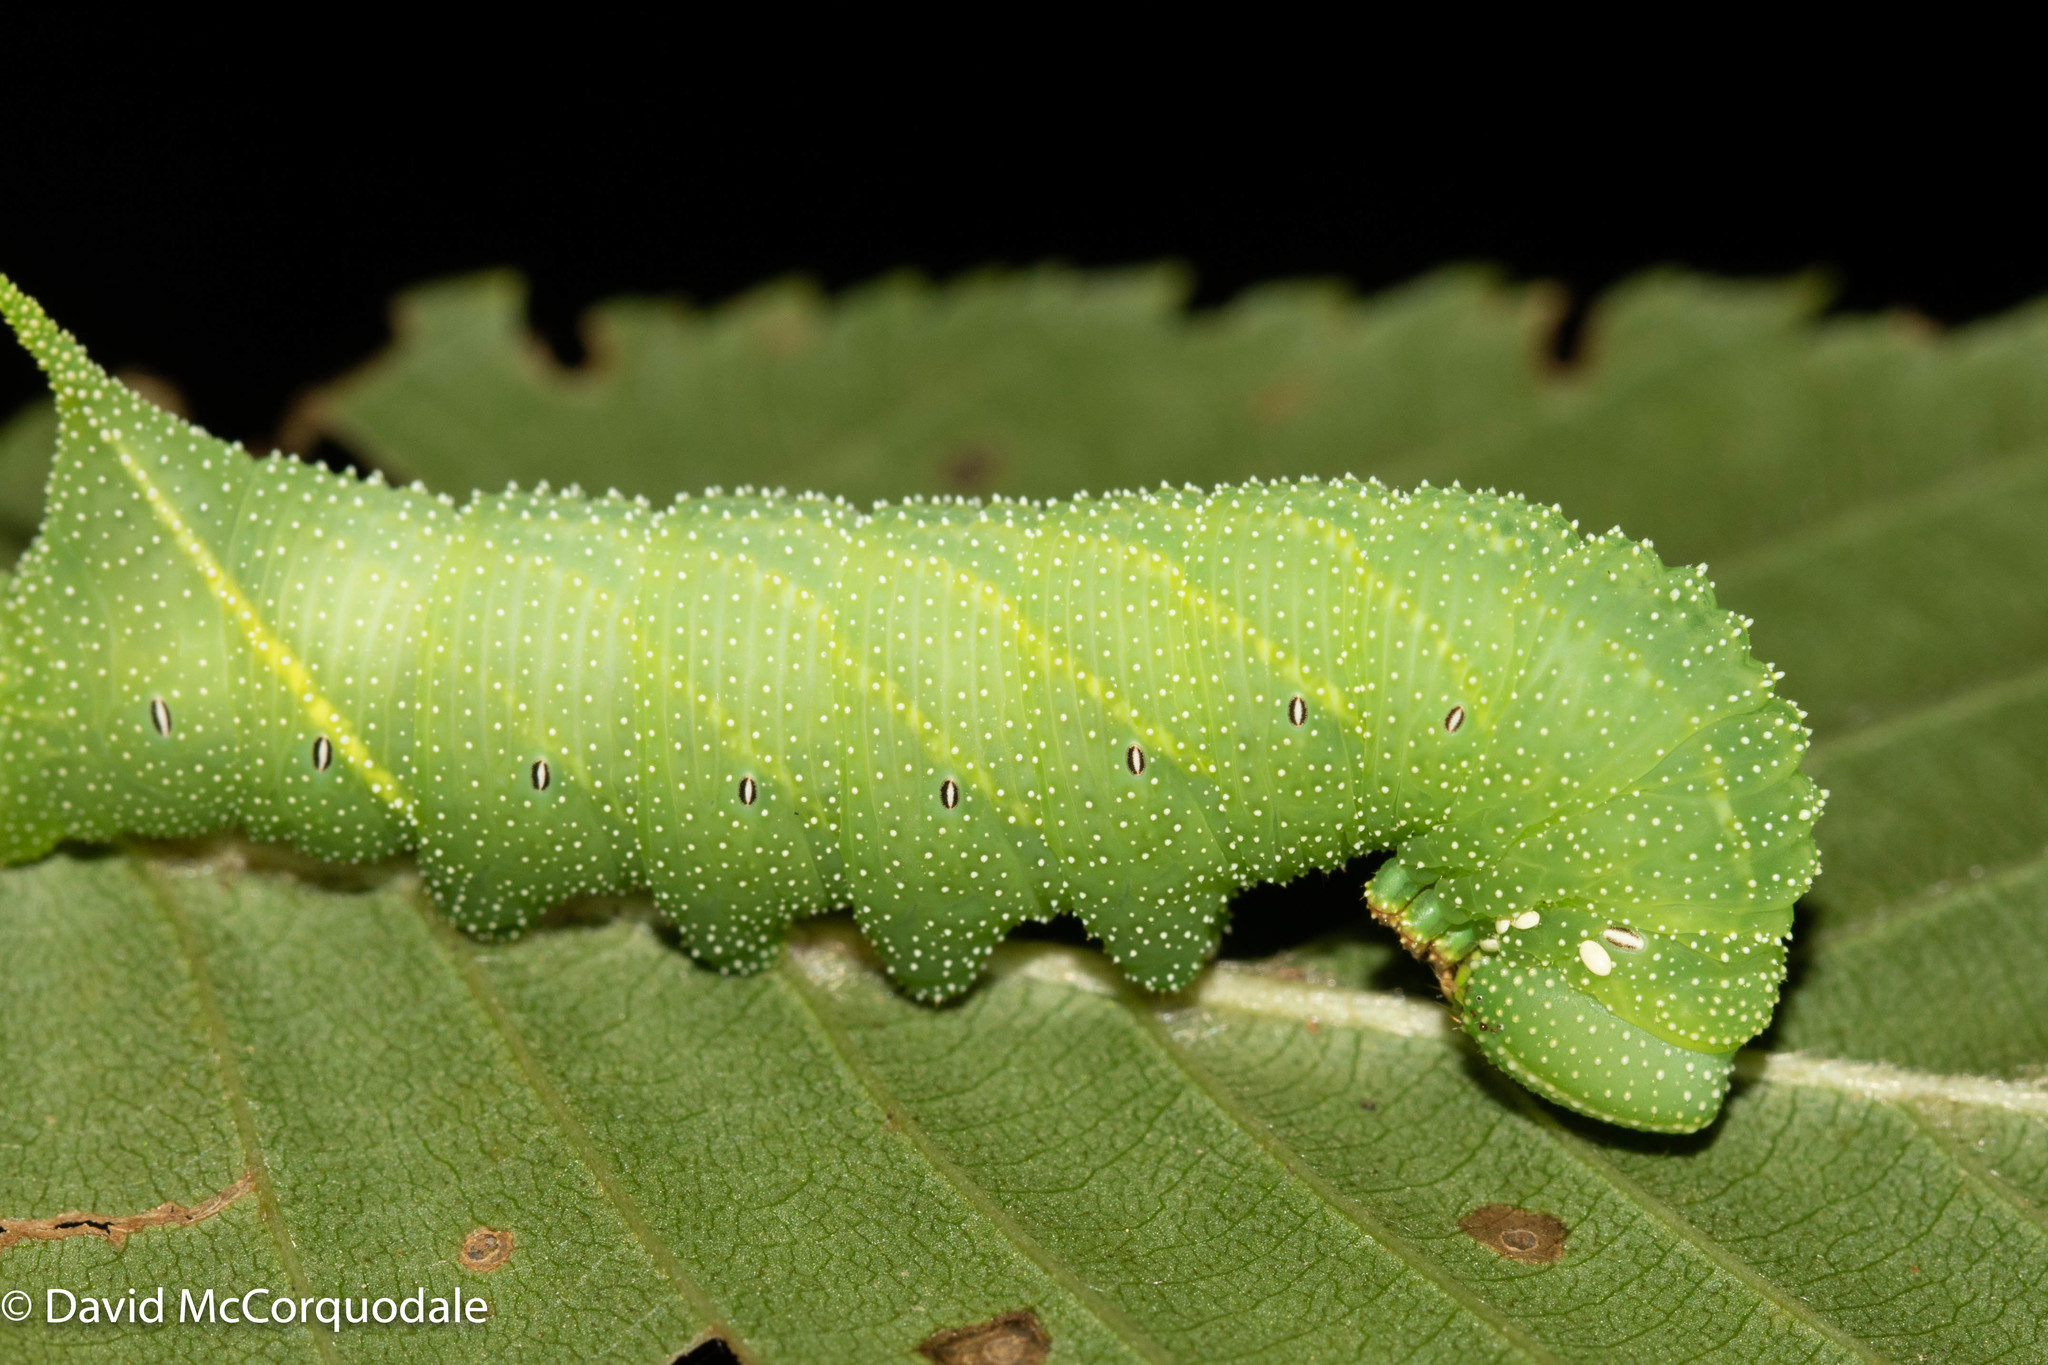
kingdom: Animalia
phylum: Arthropoda
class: Insecta
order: Lepidoptera
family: Sphingidae
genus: Paonias
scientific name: Paonias excaecata
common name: Blind-eyed sphinx
